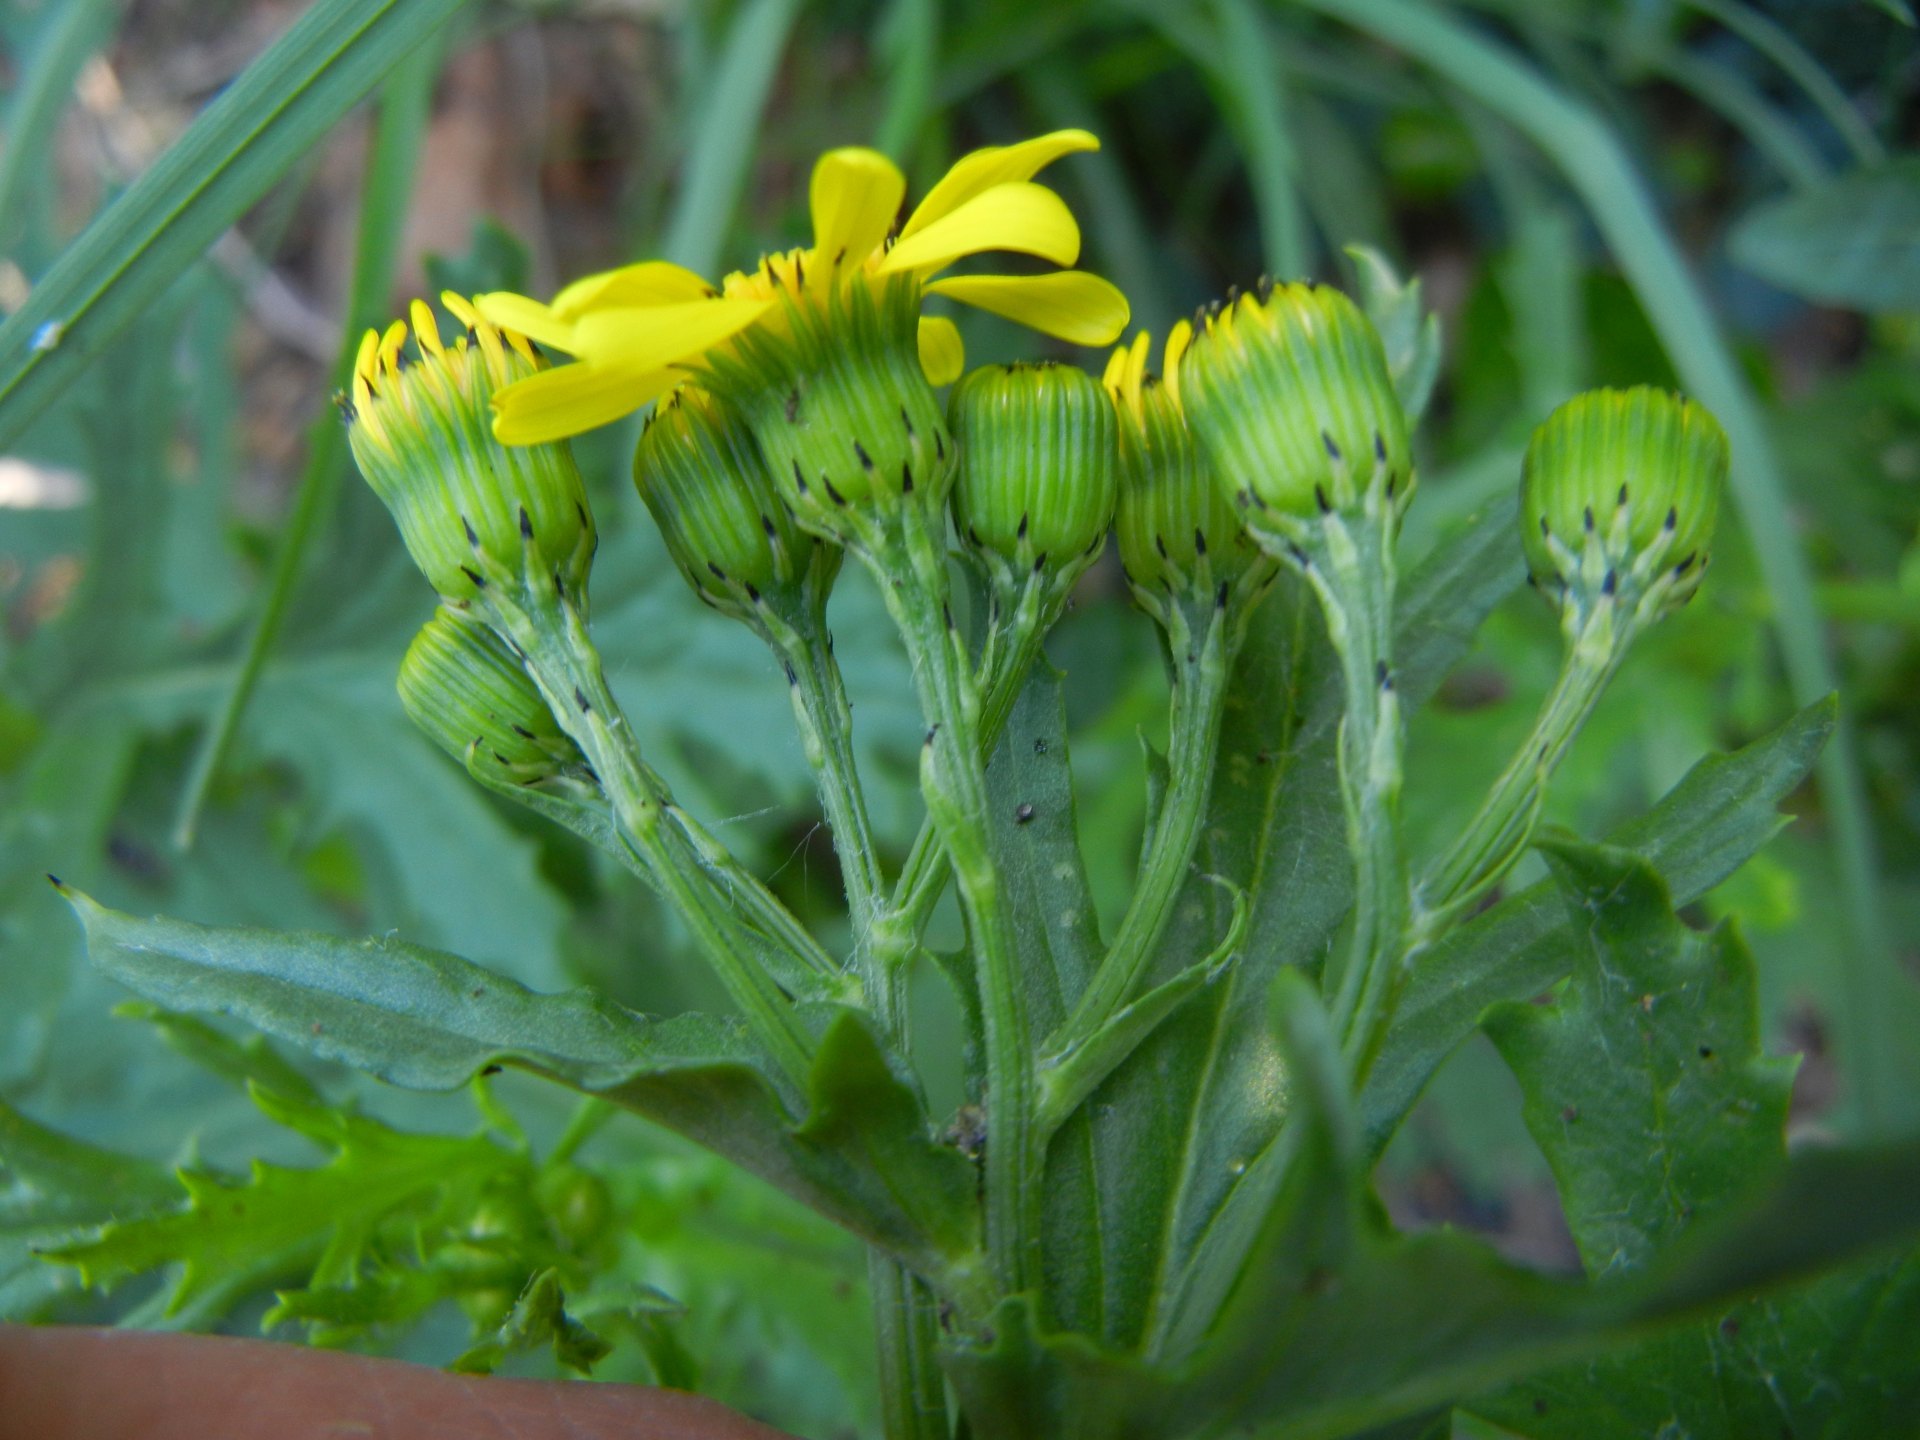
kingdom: Plantae
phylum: Tracheophyta
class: Magnoliopsida
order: Asterales
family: Asteraceae
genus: Senecio
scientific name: Senecio squalidus
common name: Oxford ragwort
